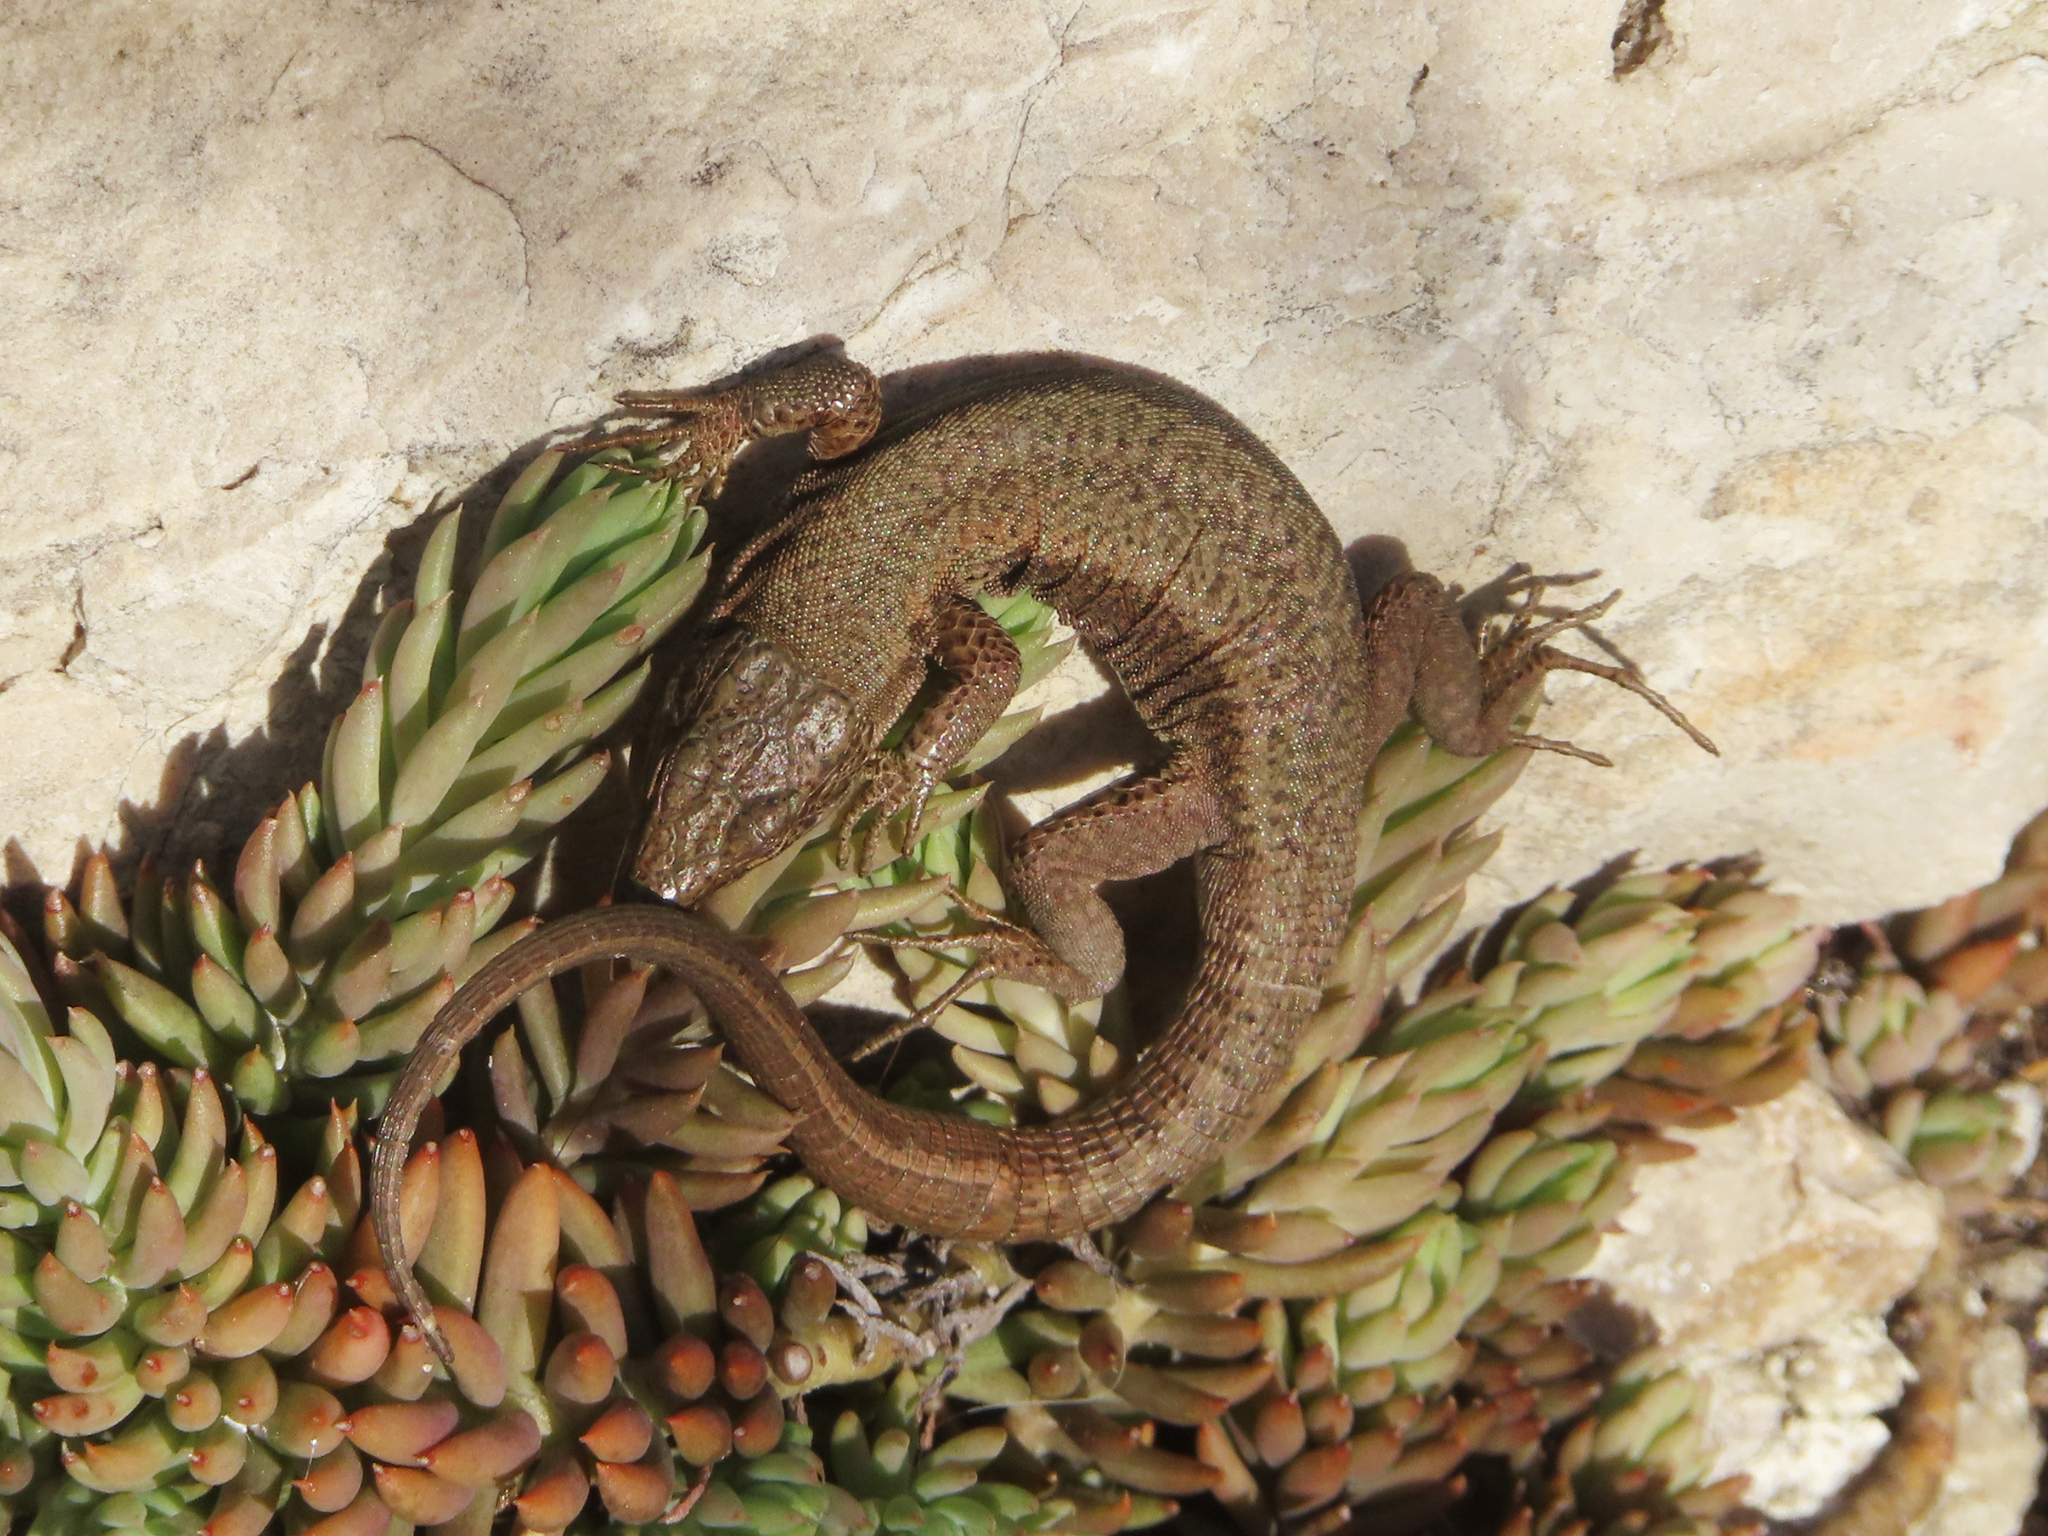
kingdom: Animalia
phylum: Chordata
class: Squamata
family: Lacertidae
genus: Podarcis
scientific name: Podarcis muralis
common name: Common wall lizard
